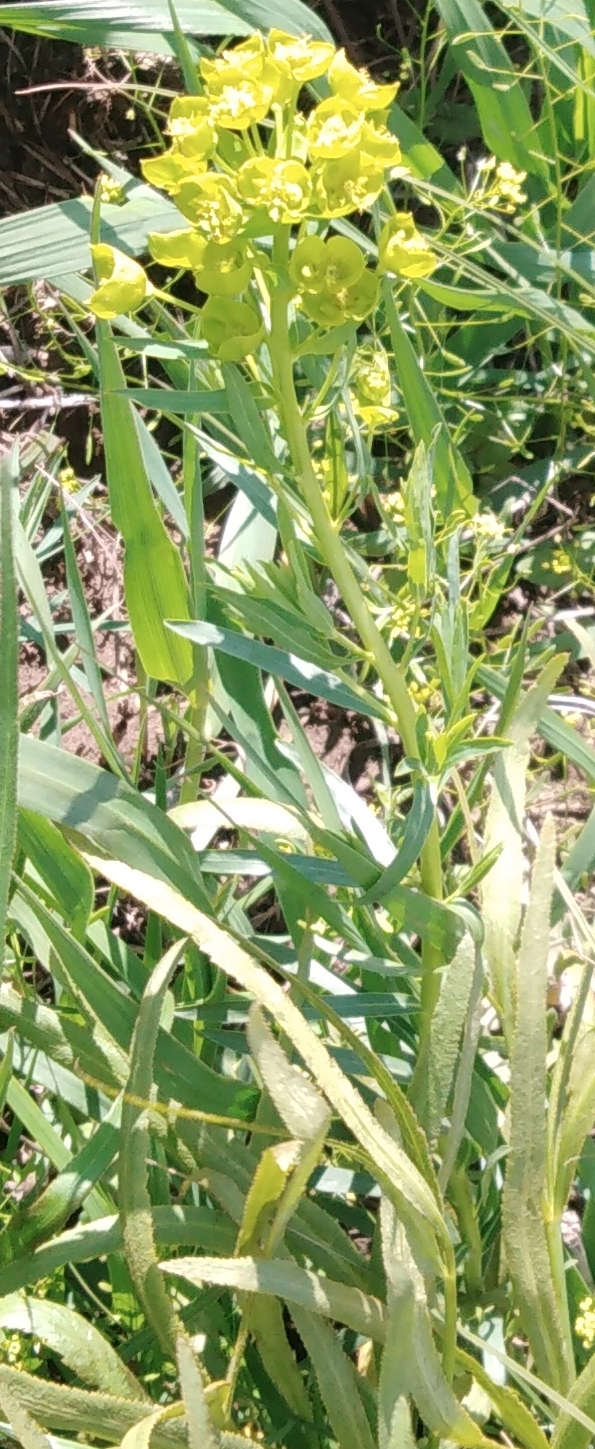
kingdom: Plantae
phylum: Tracheophyta
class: Magnoliopsida
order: Malpighiales
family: Euphorbiaceae
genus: Euphorbia
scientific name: Euphorbia virgata
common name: Leafy spurge
